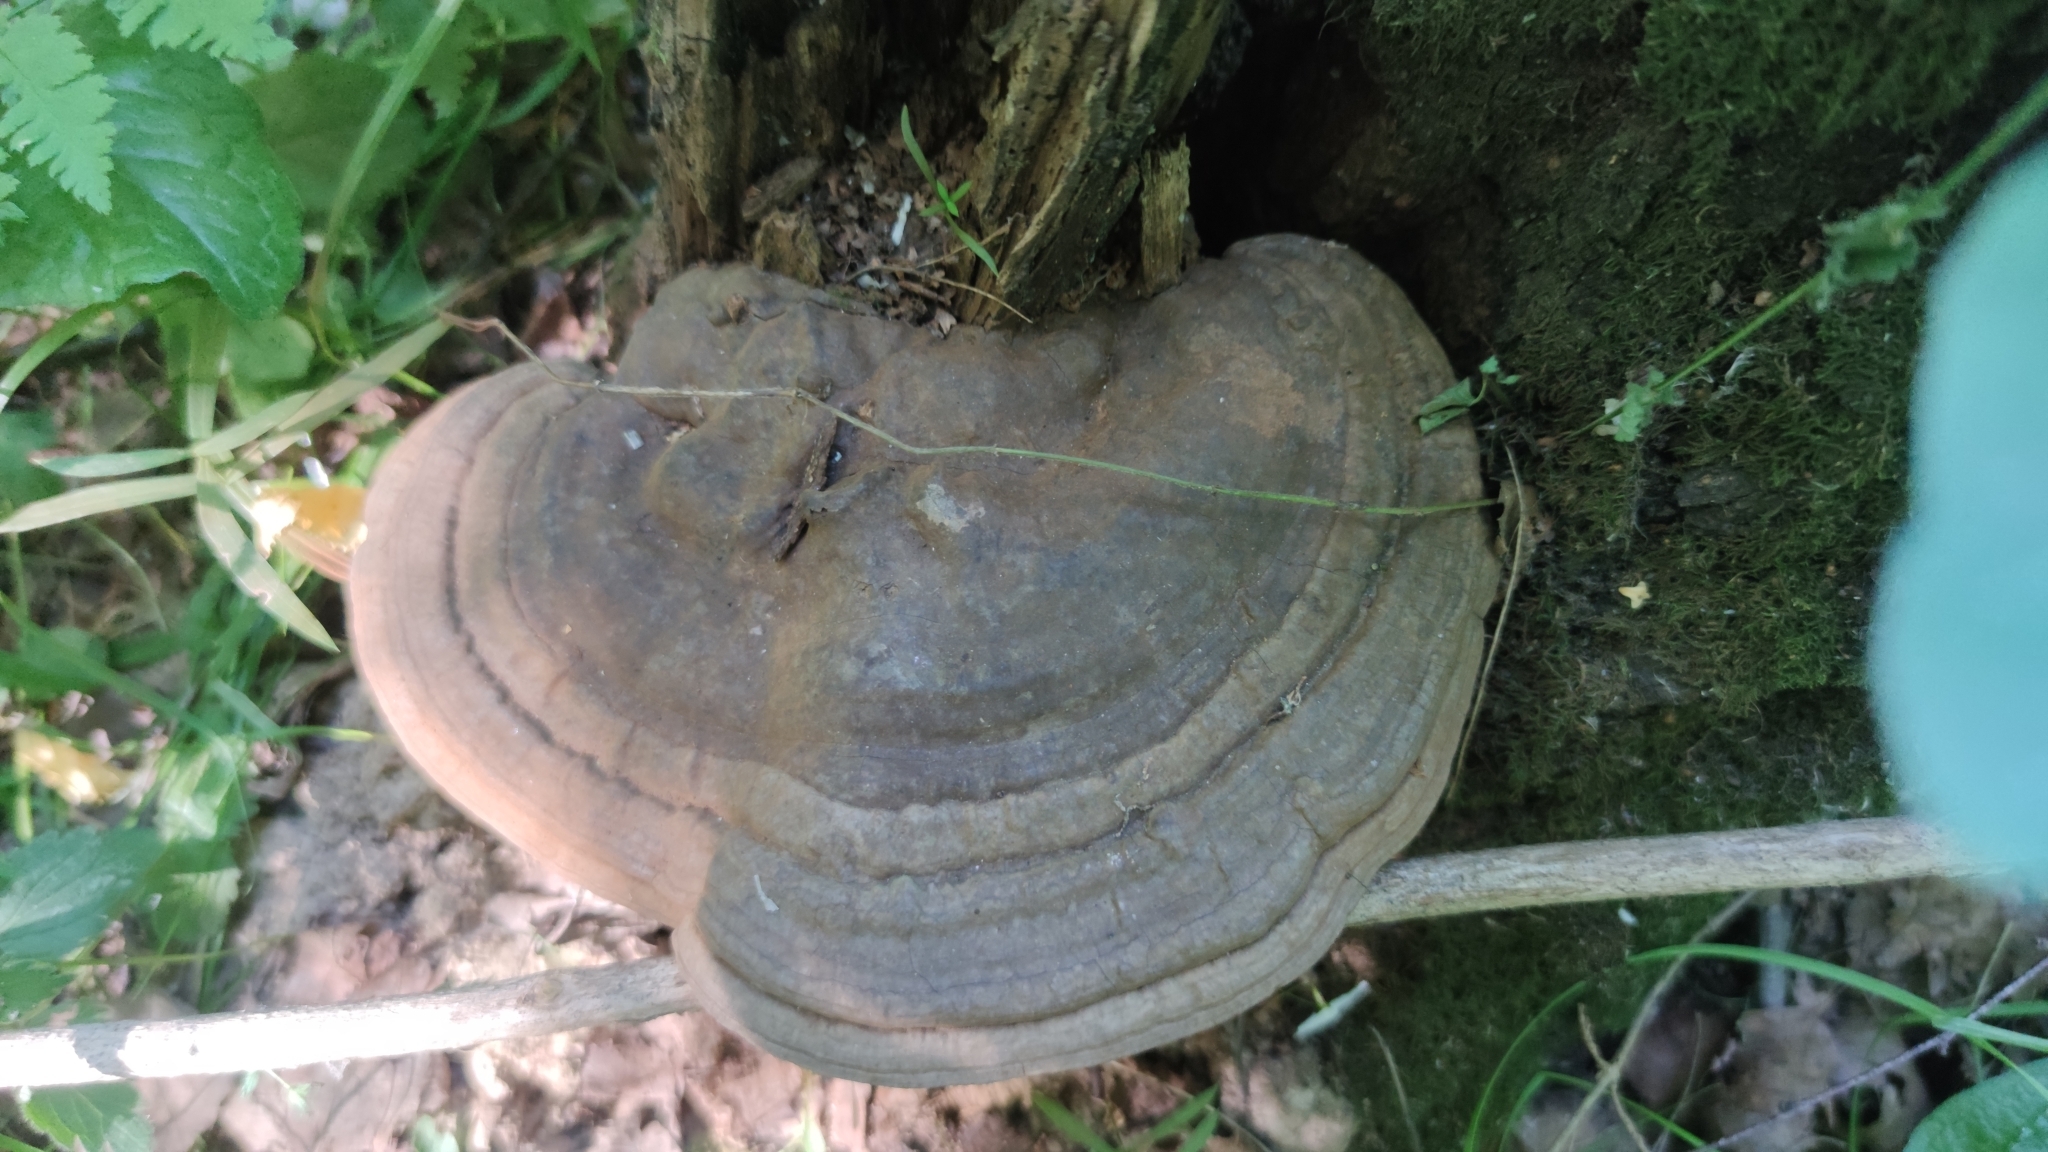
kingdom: Fungi
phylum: Basidiomycota
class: Agaricomycetes
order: Polyporales
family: Polyporaceae
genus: Ganoderma
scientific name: Ganoderma applanatum
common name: Artist's bracket
